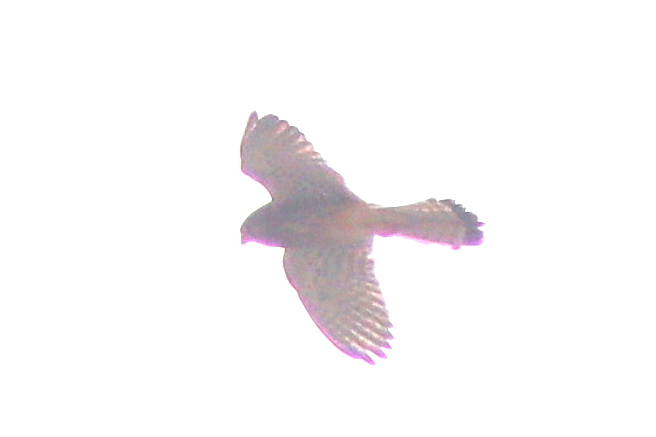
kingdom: Animalia
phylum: Chordata
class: Aves
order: Falconiformes
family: Falconidae
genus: Falco
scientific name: Falco tinnunculus
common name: Common kestrel
